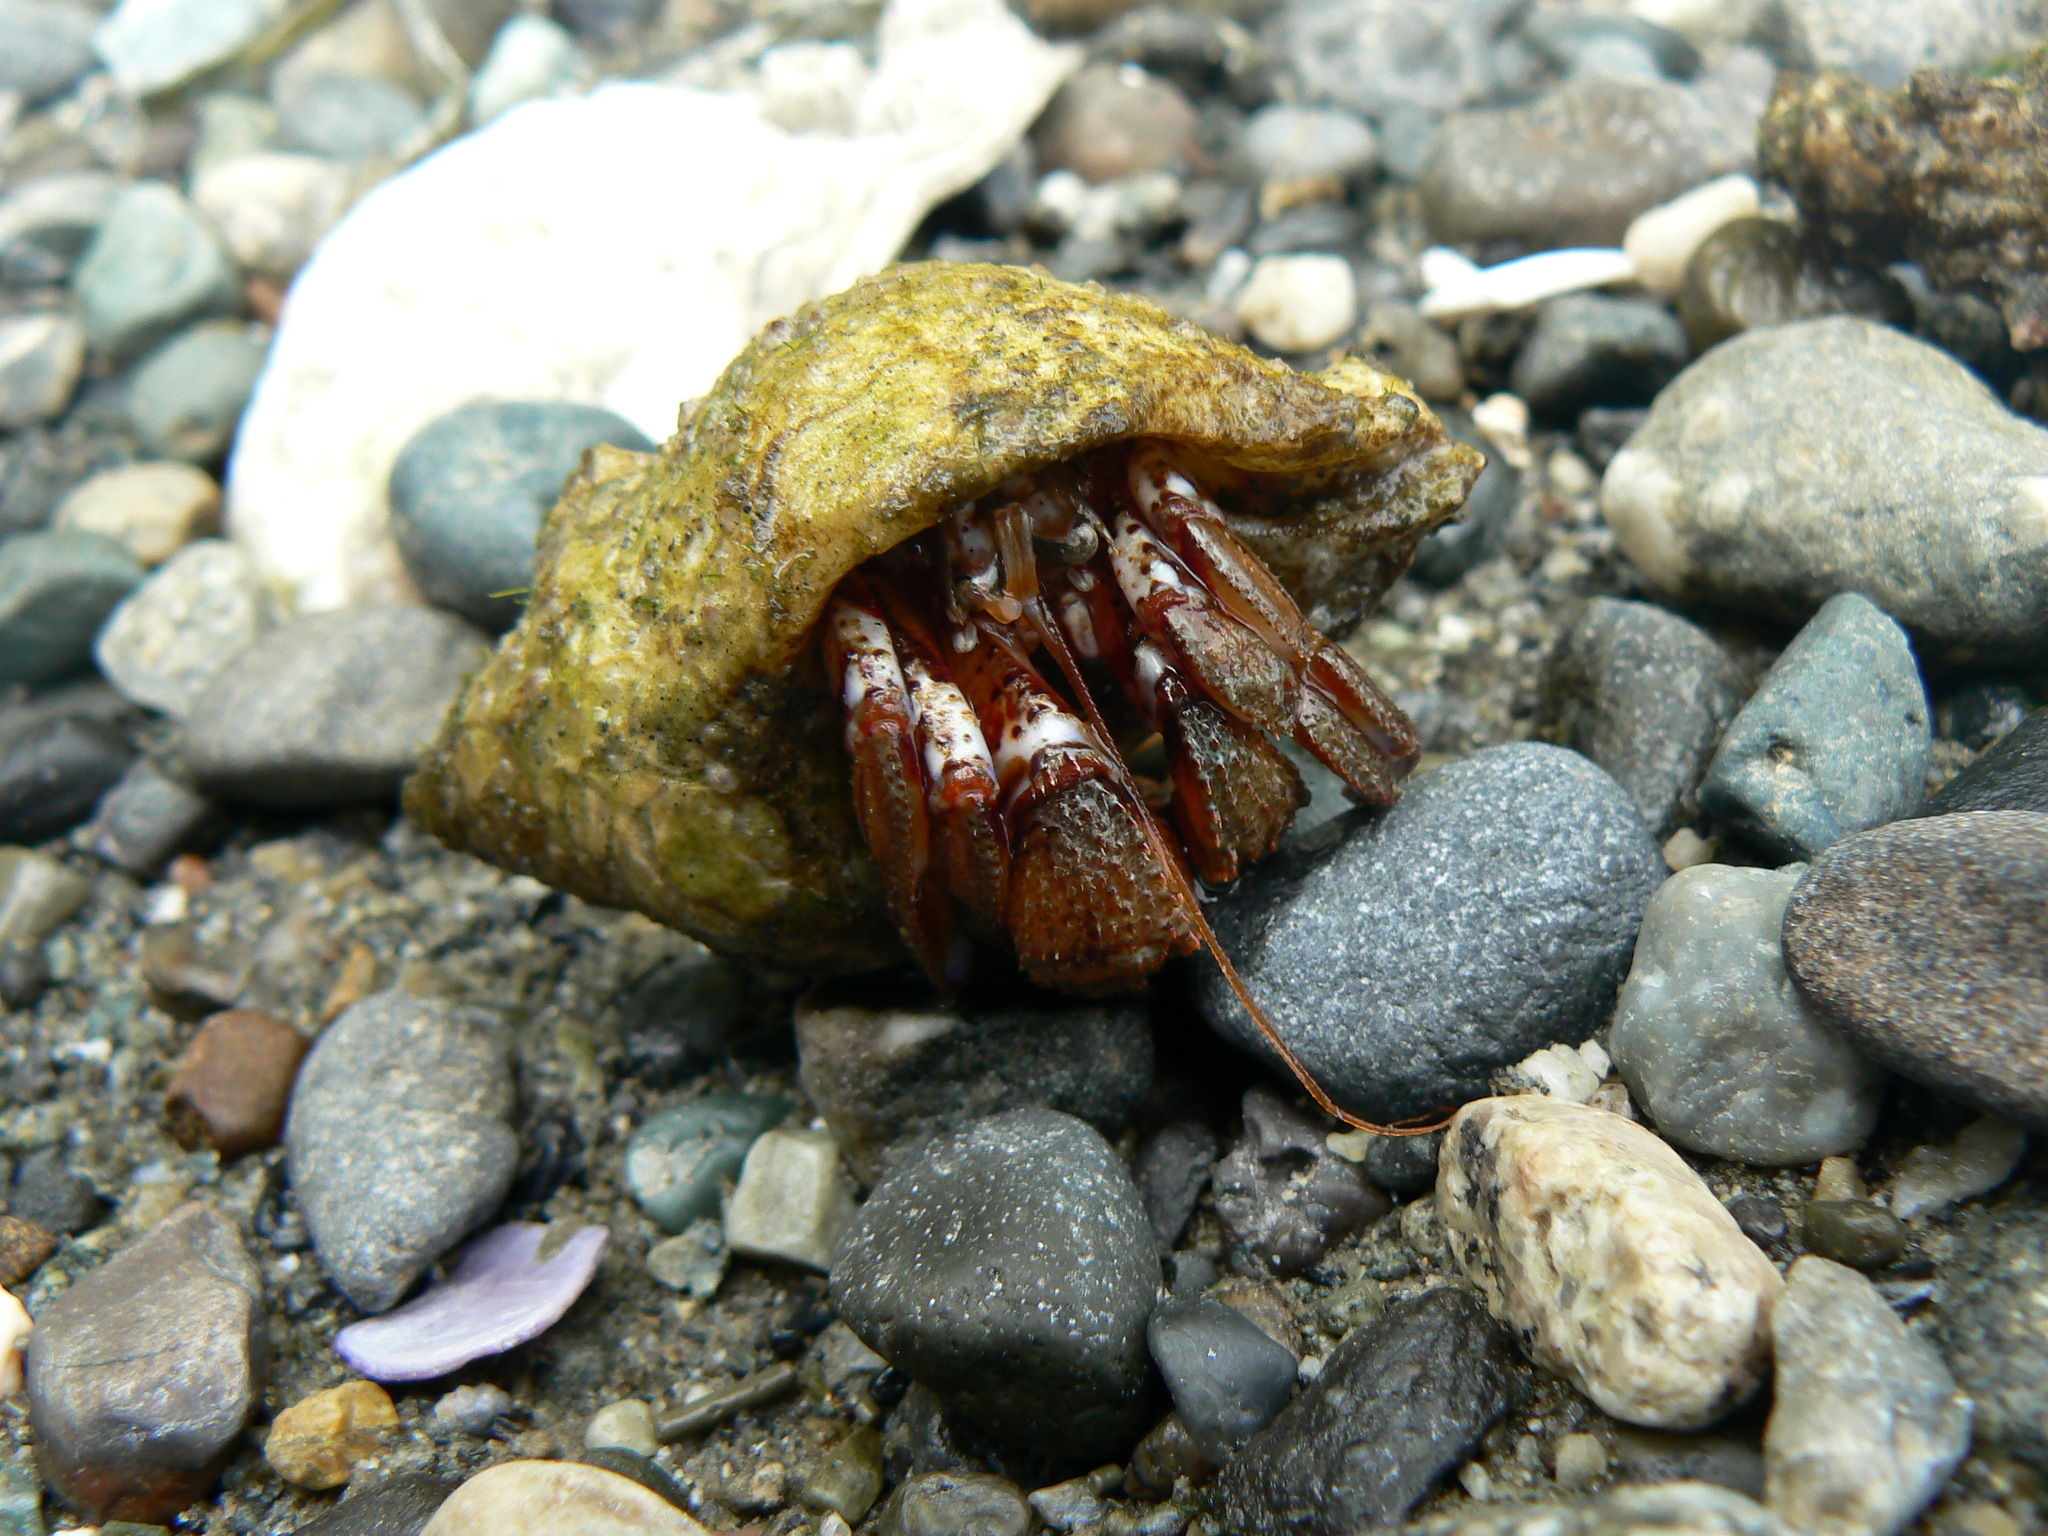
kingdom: Animalia
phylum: Arthropoda
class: Malacostraca
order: Decapoda
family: Paguridae
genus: Pagurus
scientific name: Pagurus armatus
